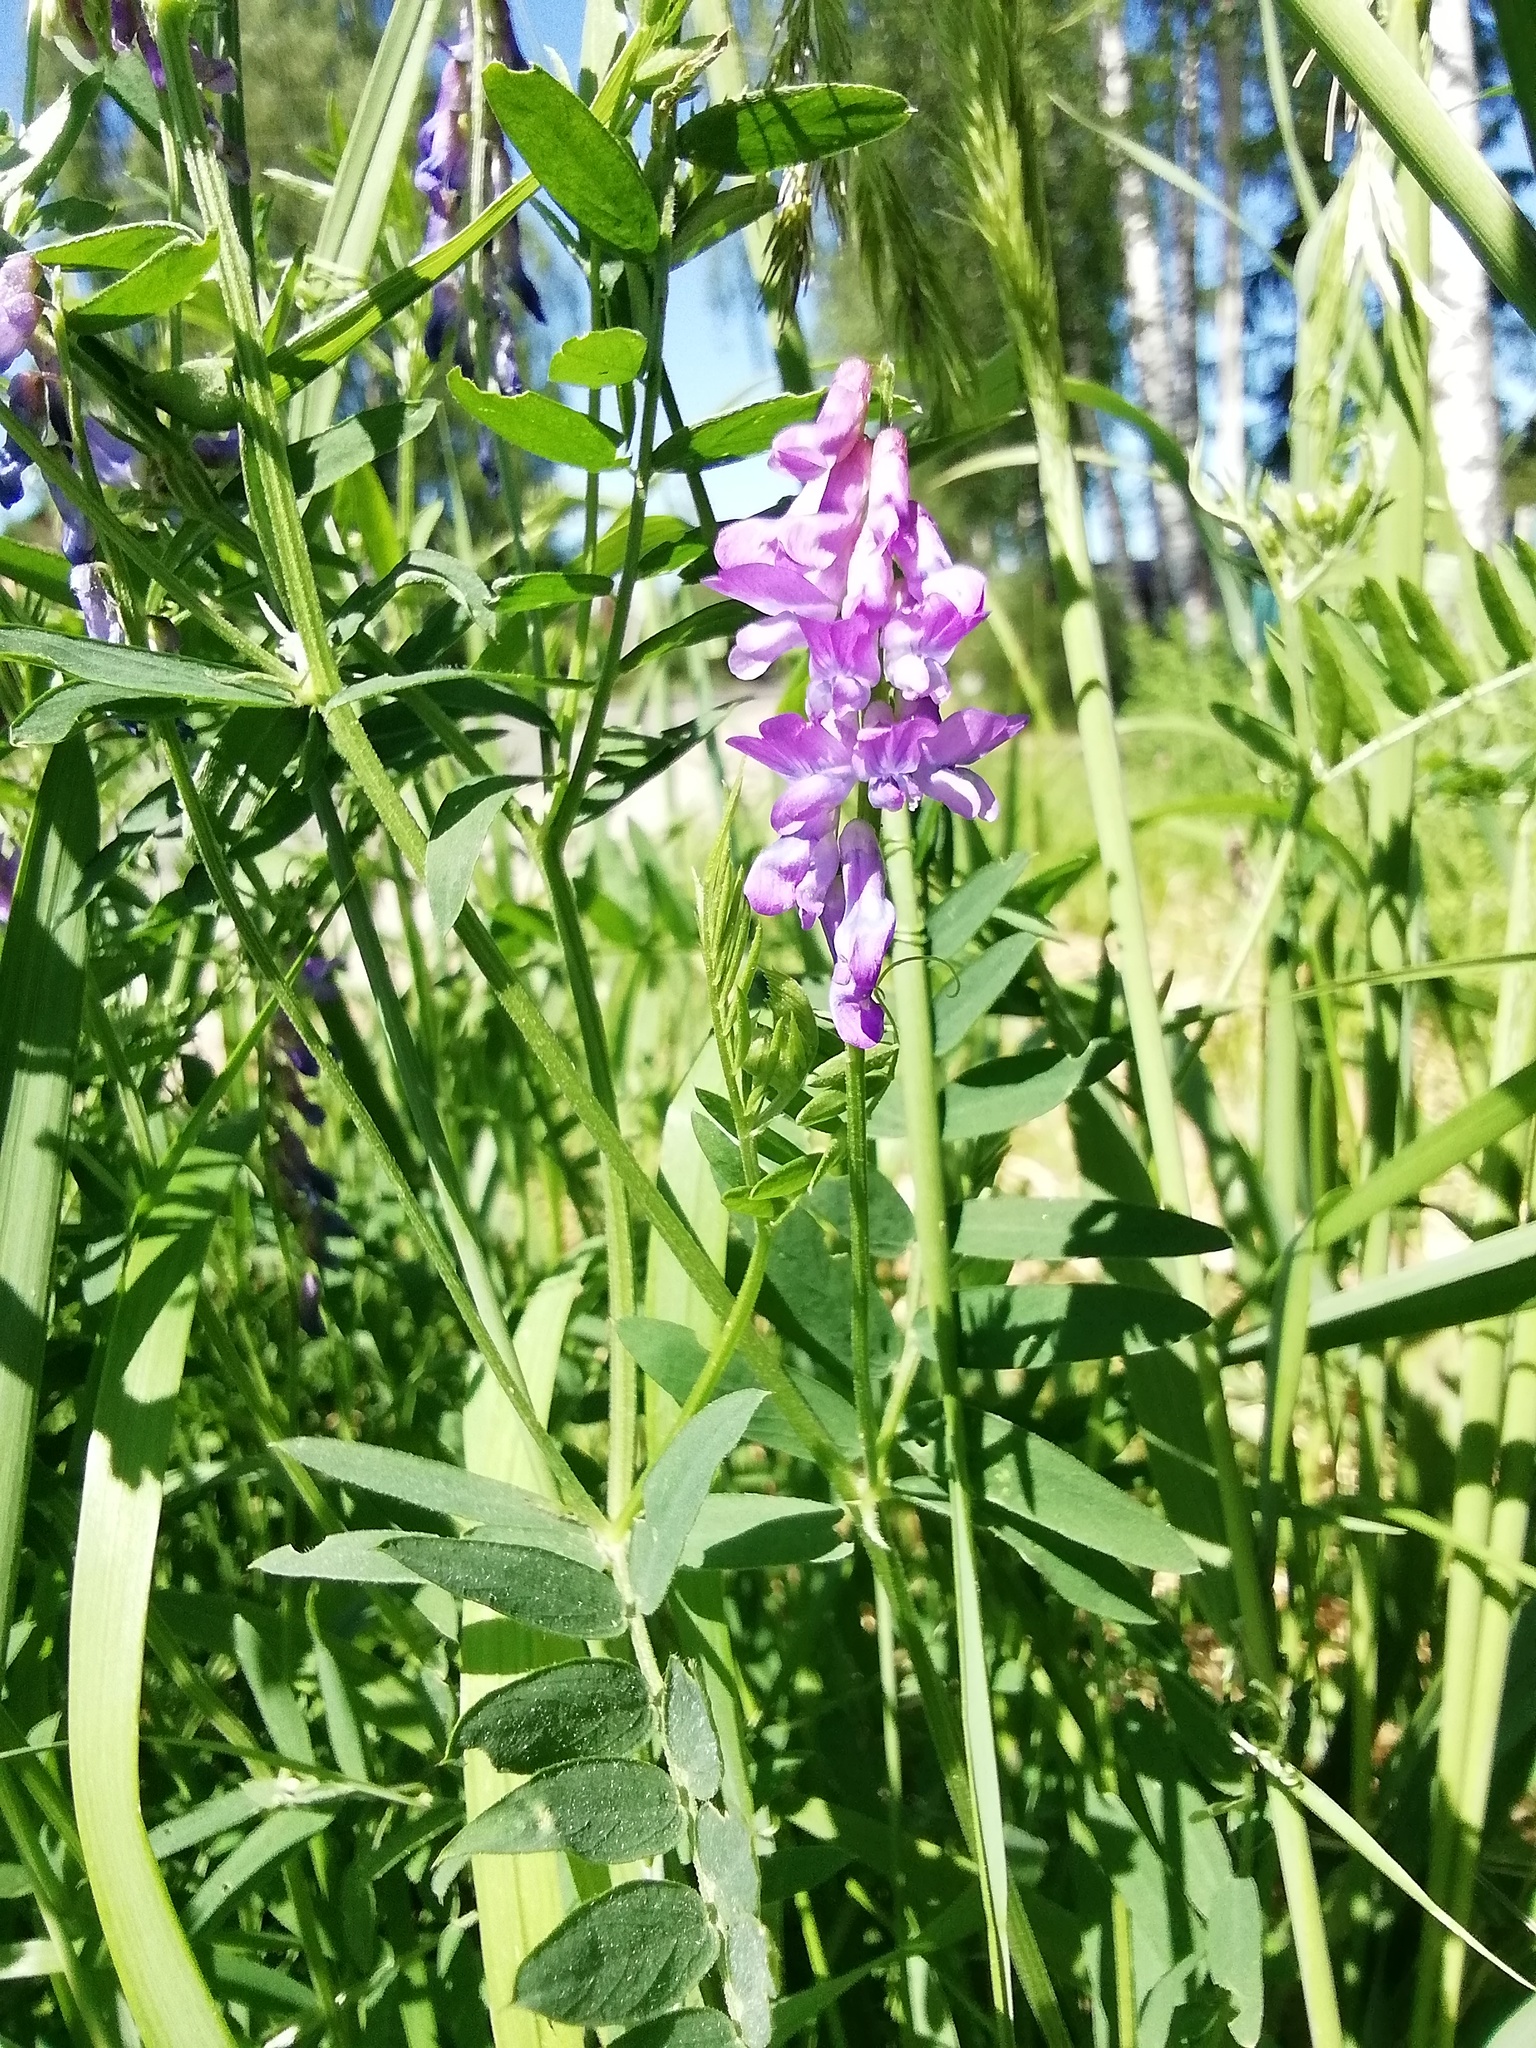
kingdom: Plantae
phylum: Tracheophyta
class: Magnoliopsida
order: Fabales
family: Fabaceae
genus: Vicia
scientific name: Vicia cracca
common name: Bird vetch
